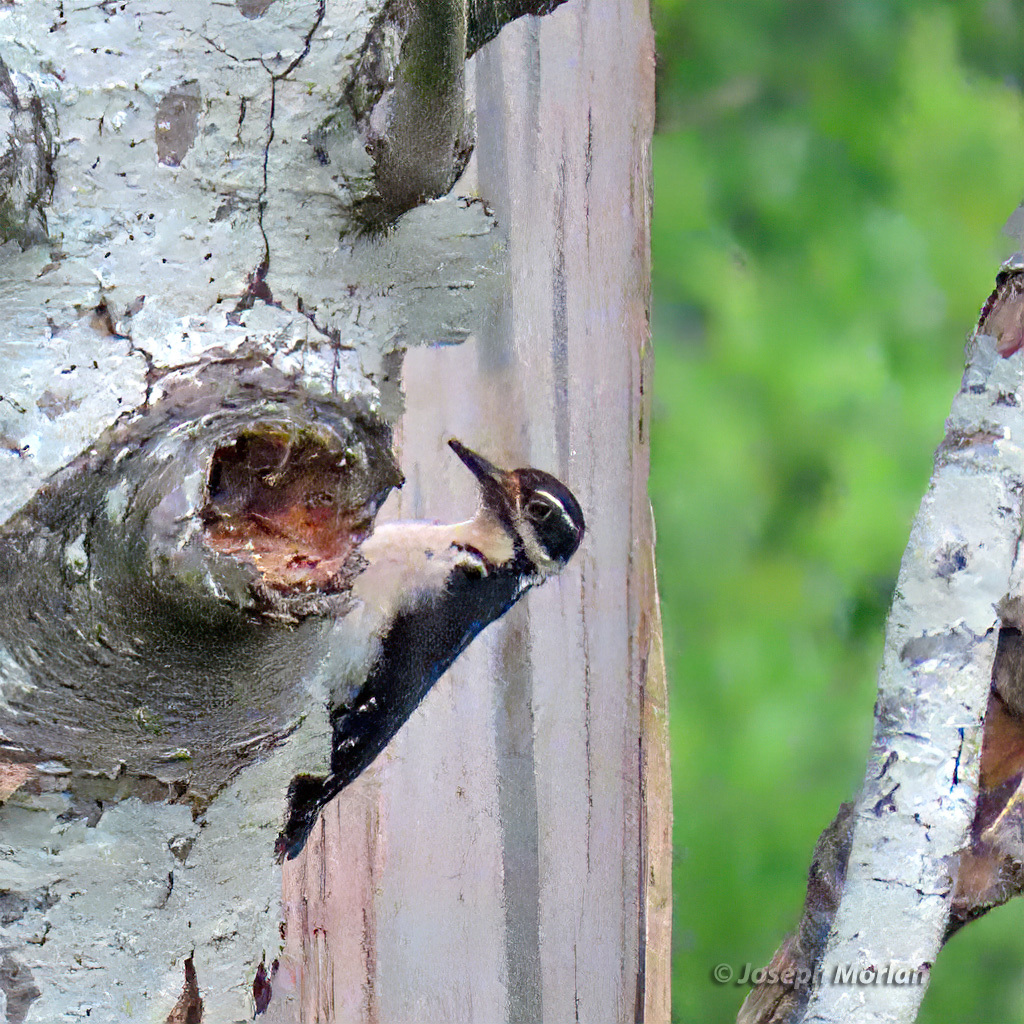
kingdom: Animalia
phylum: Chordata
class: Aves
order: Piciformes
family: Picidae
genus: Leuconotopicus
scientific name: Leuconotopicus villosus
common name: Hairy woodpecker
